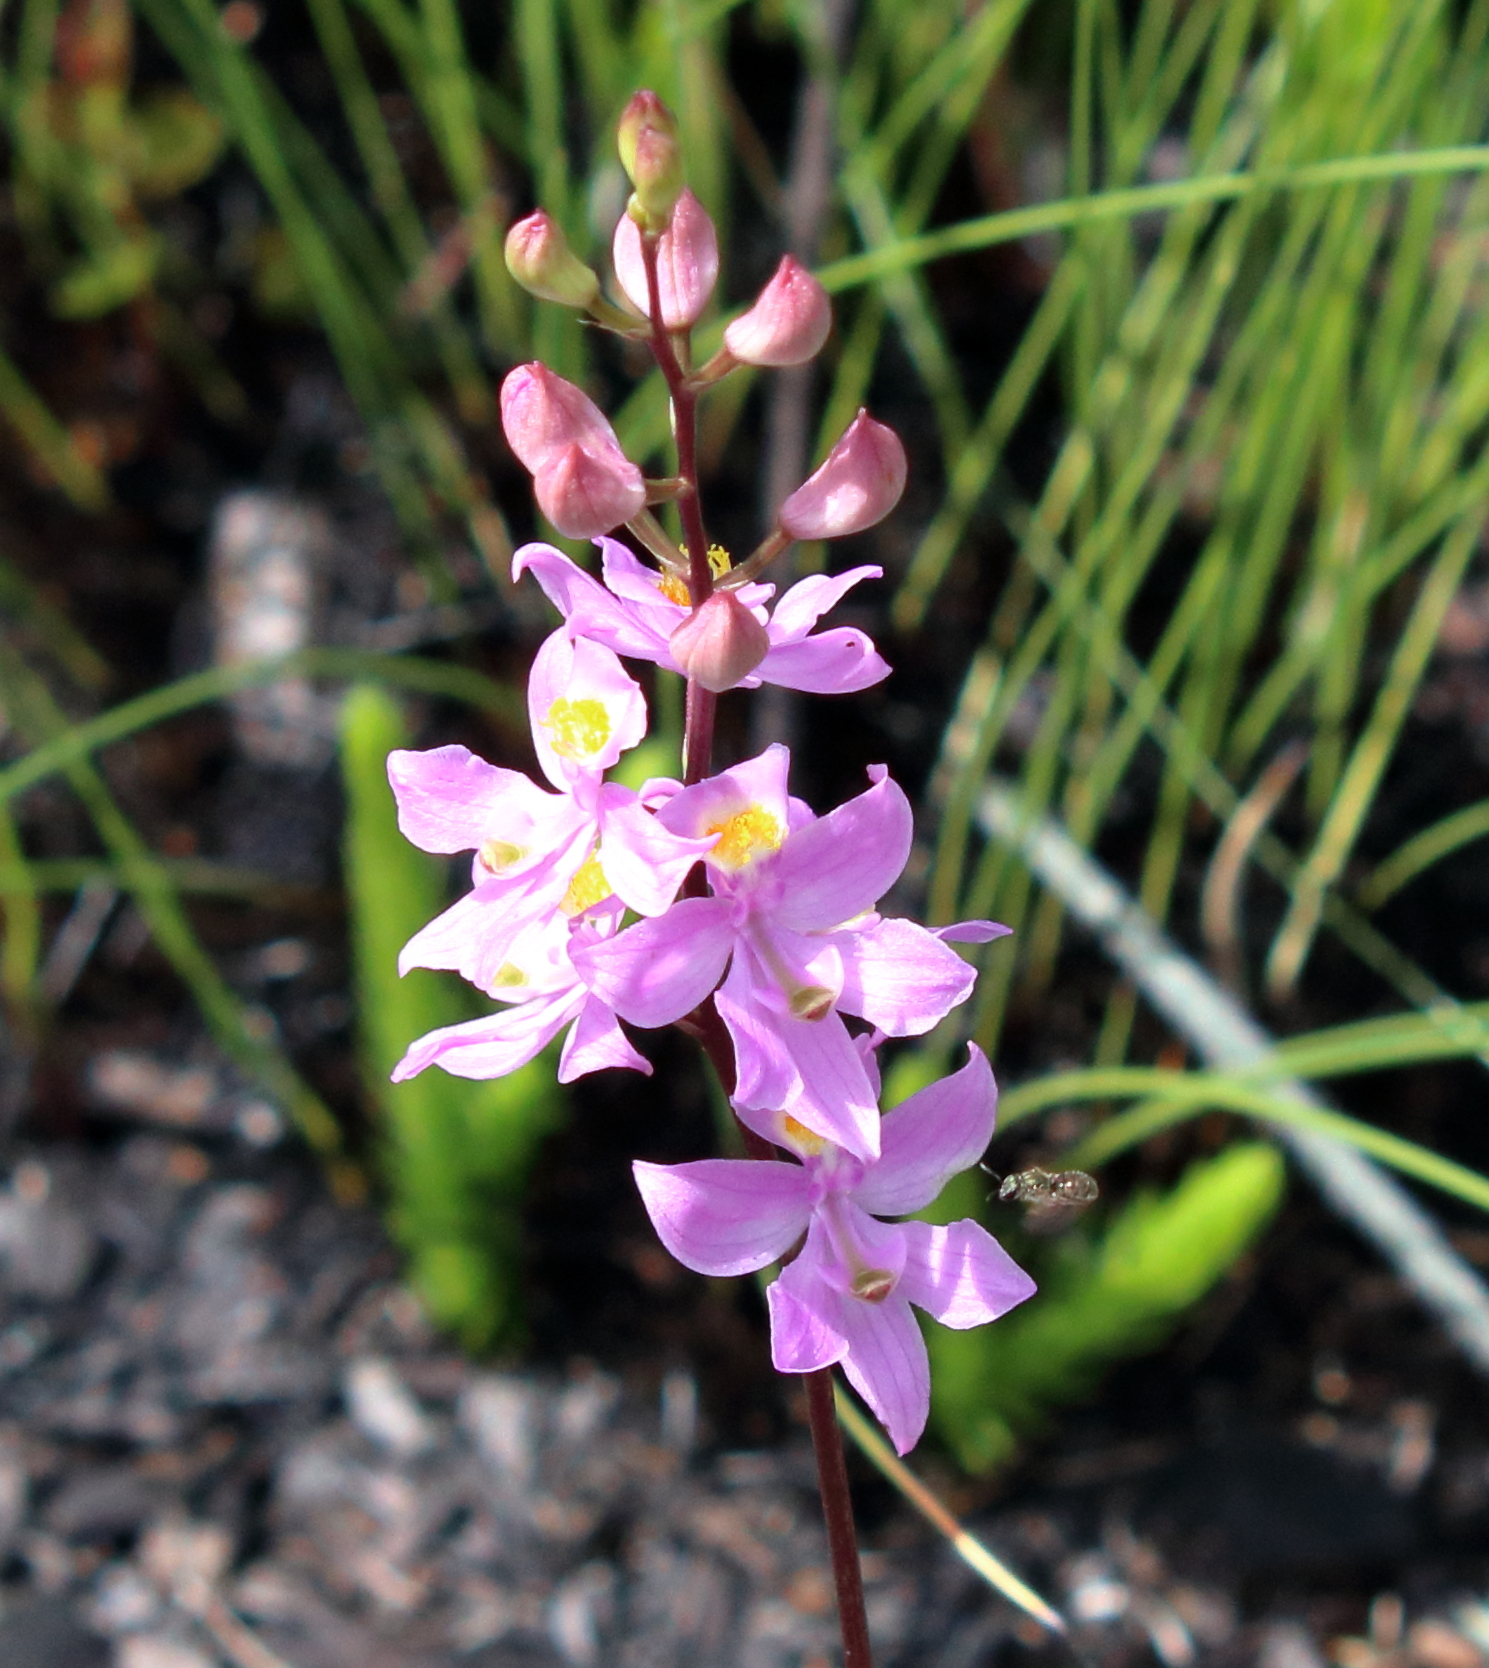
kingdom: Plantae
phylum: Tracheophyta
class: Liliopsida
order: Asparagales
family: Orchidaceae
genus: Calopogon
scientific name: Calopogon multiflorus
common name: Many-flowered grass-pink orchid
